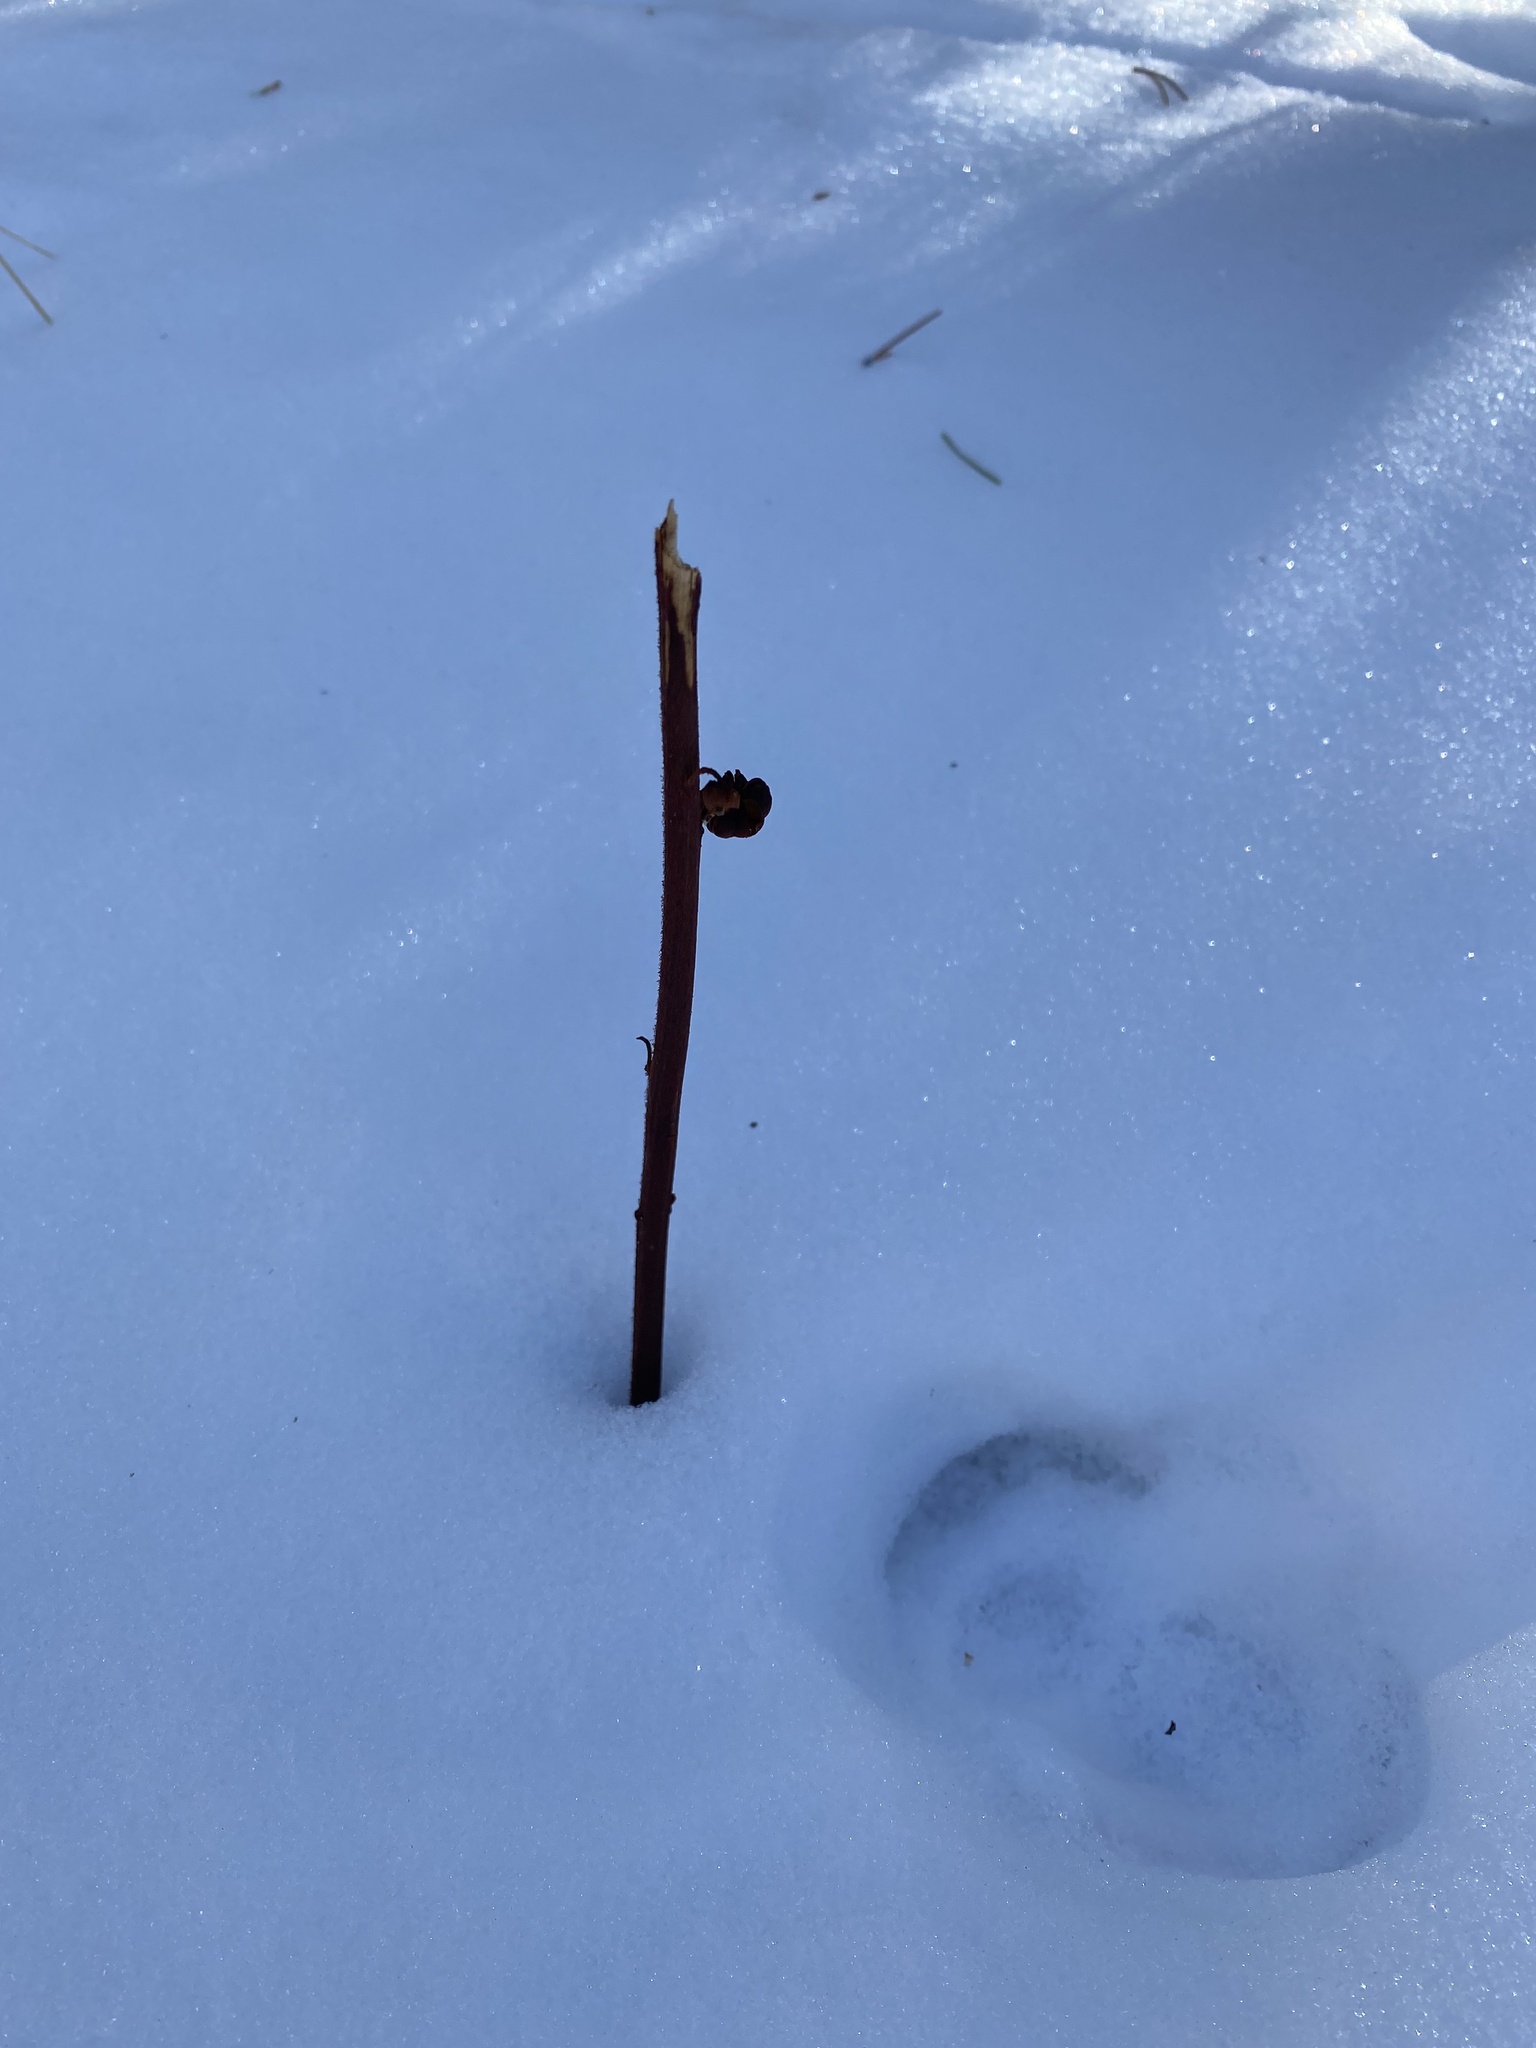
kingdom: Plantae
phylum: Tracheophyta
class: Magnoliopsida
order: Ericales
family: Ericaceae
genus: Pterospora
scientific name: Pterospora andromedea
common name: Giant bird's-nest
